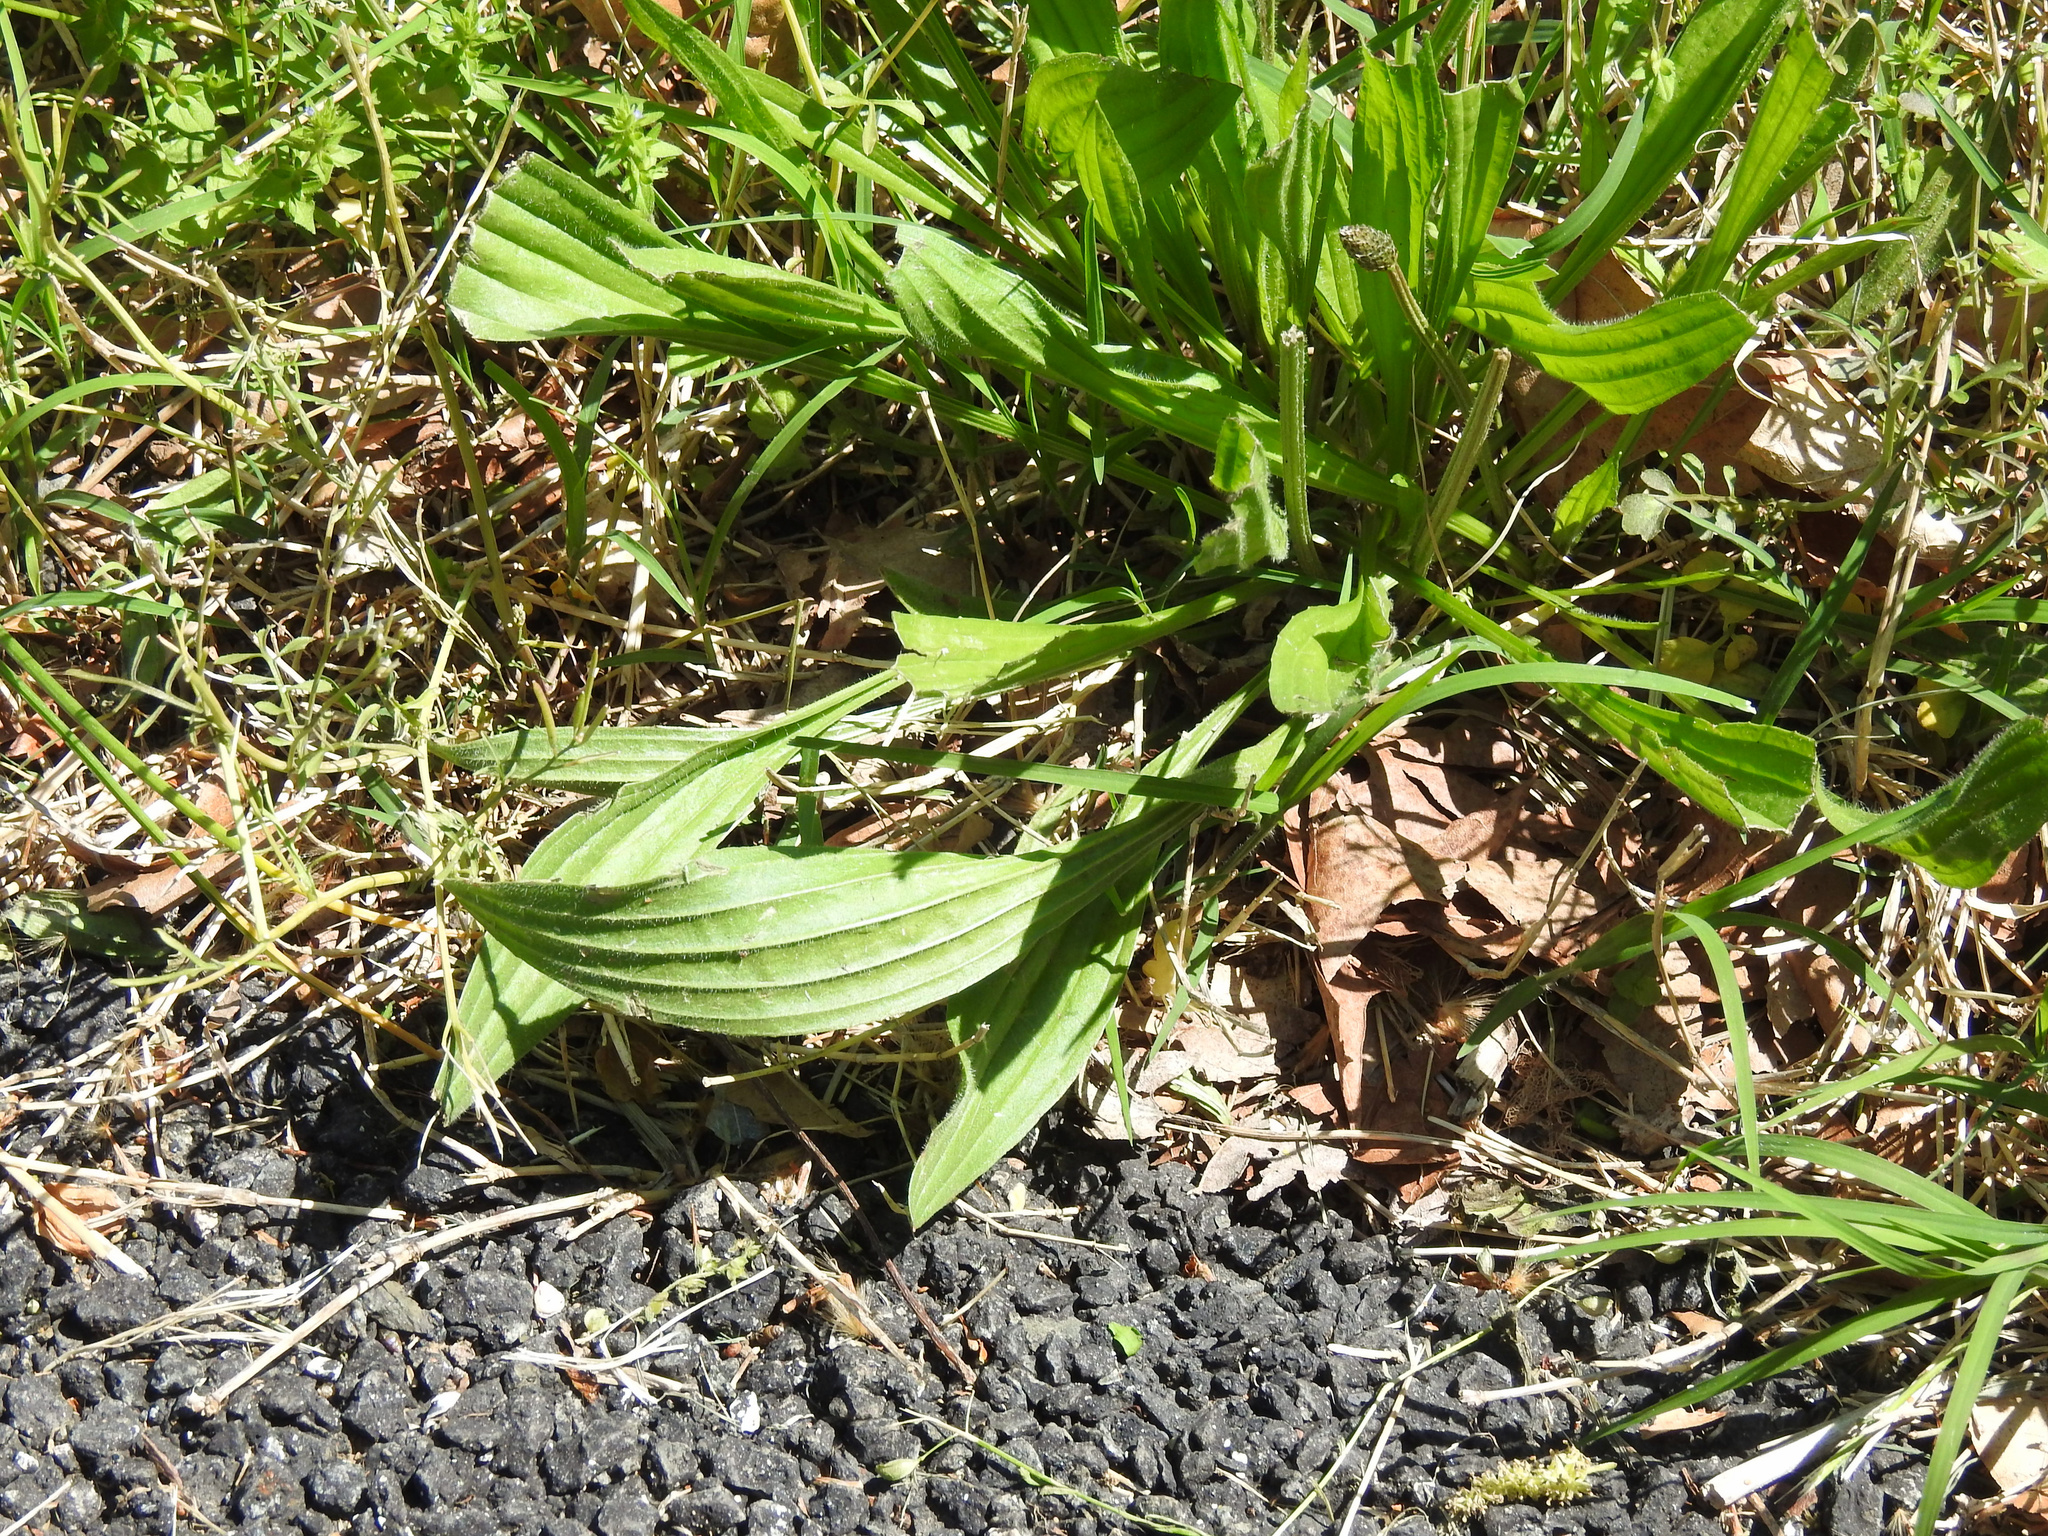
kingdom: Plantae
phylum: Tracheophyta
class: Magnoliopsida
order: Lamiales
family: Plantaginaceae
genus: Plantago
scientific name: Plantago lanceolata
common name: Ribwort plantain
